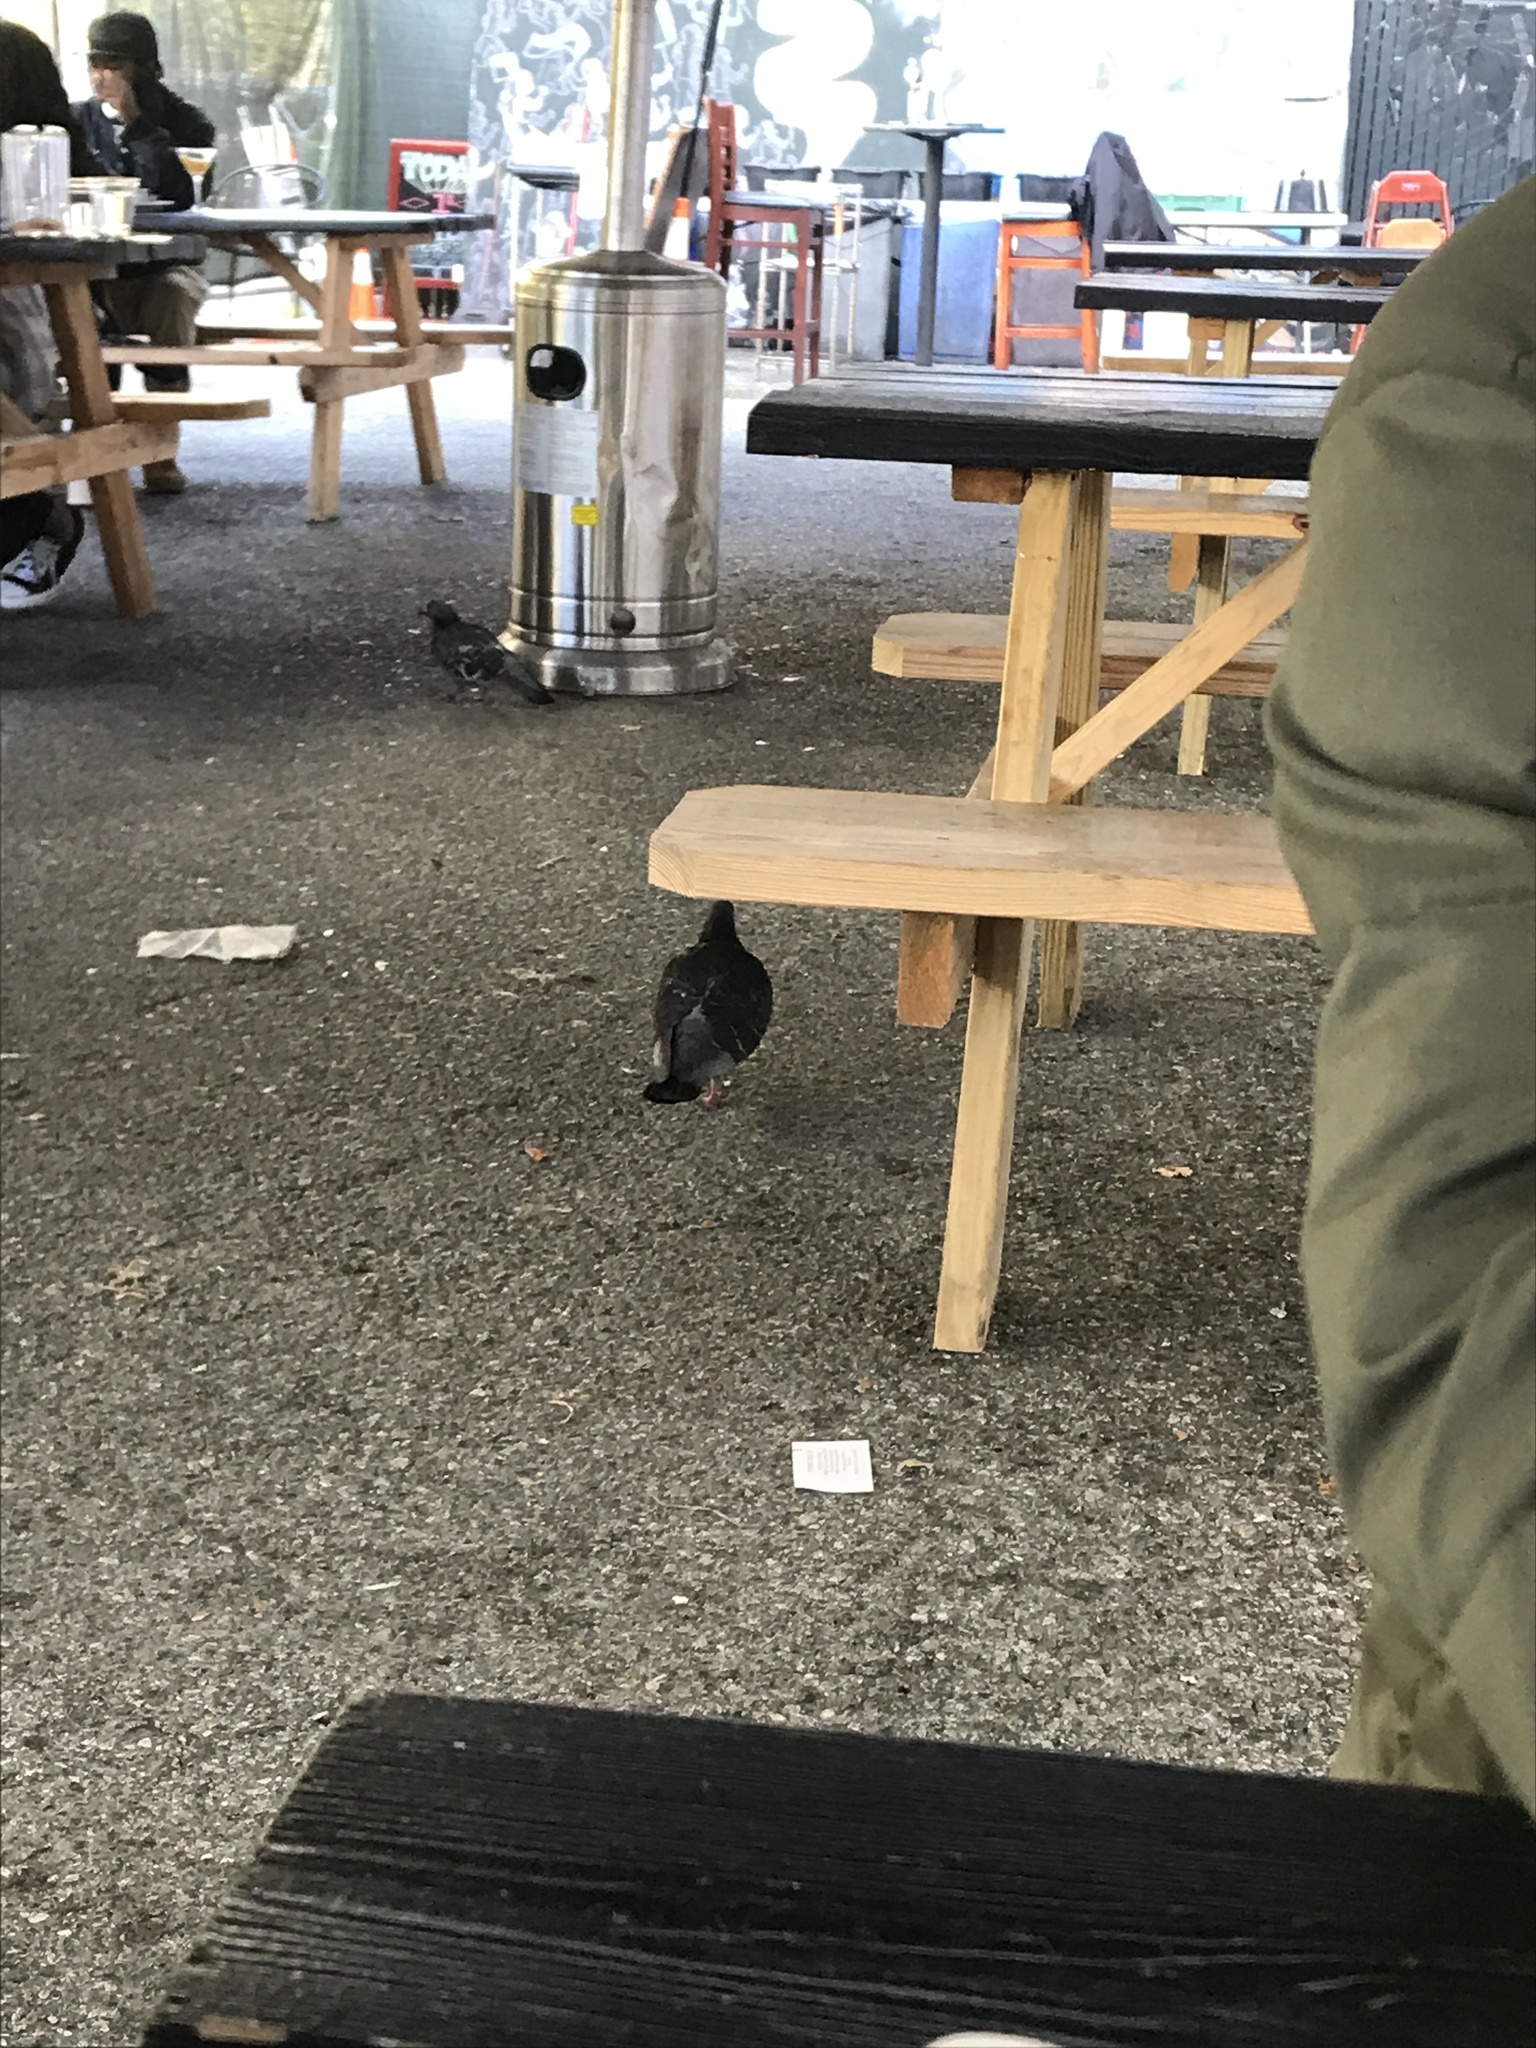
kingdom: Animalia
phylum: Chordata
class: Aves
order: Columbiformes
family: Columbidae
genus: Columba
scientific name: Columba livia
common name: Rock pigeon
